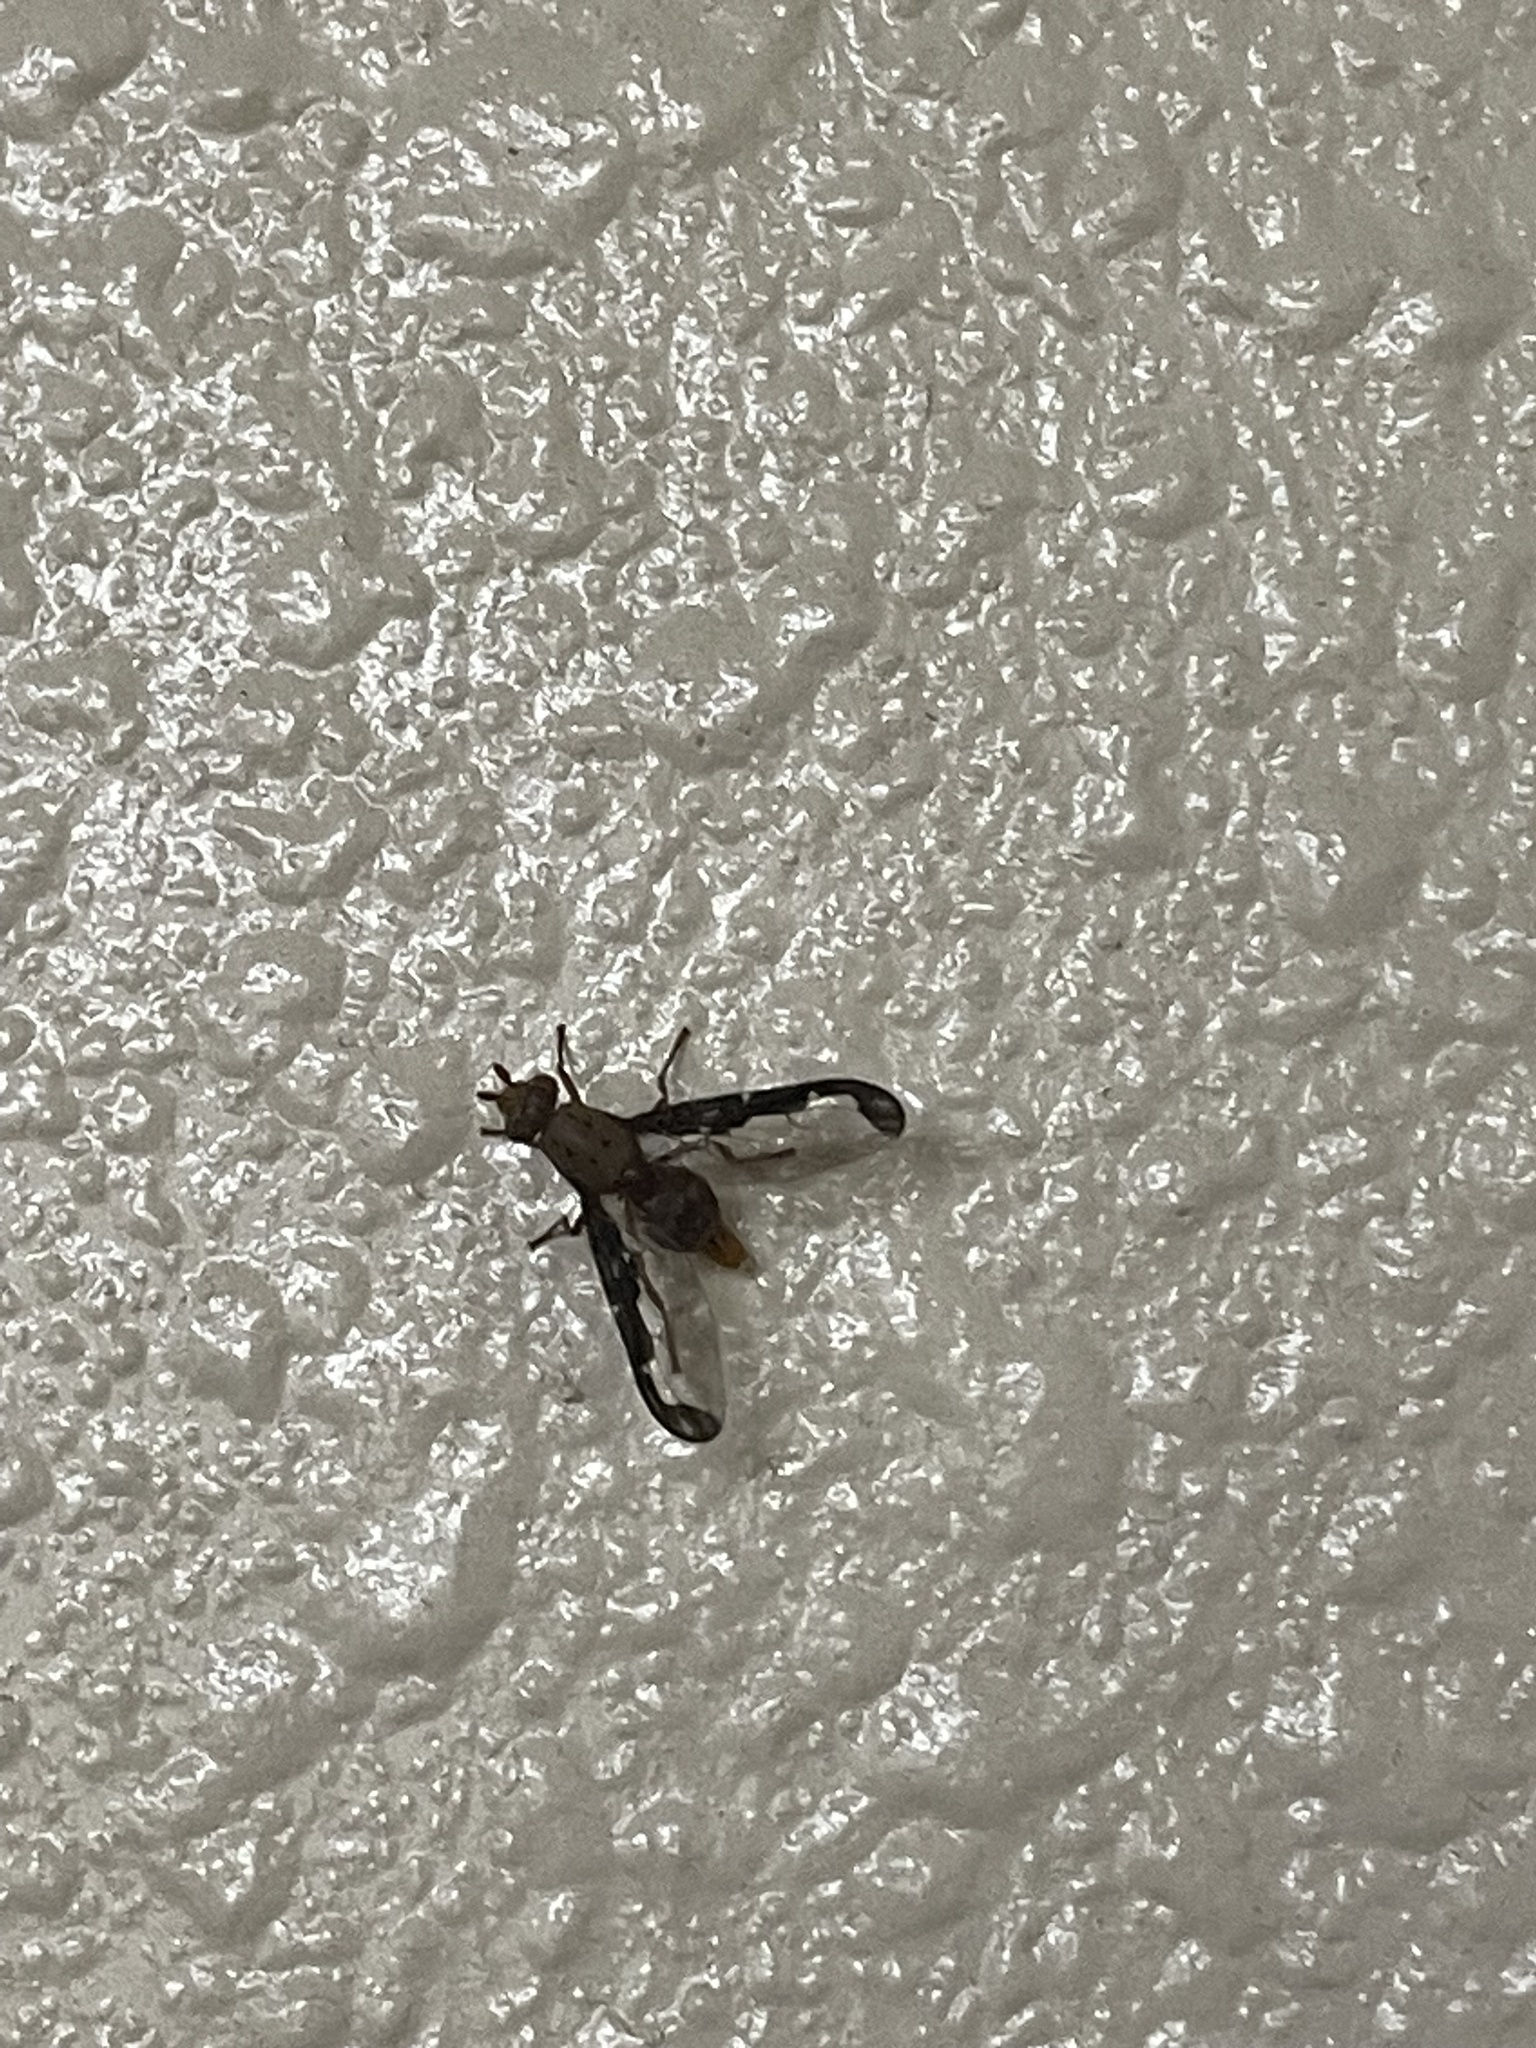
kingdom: Animalia
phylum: Arthropoda
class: Insecta
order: Diptera
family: Ulidiidae
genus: Diacrita
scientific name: Diacrita costalis
